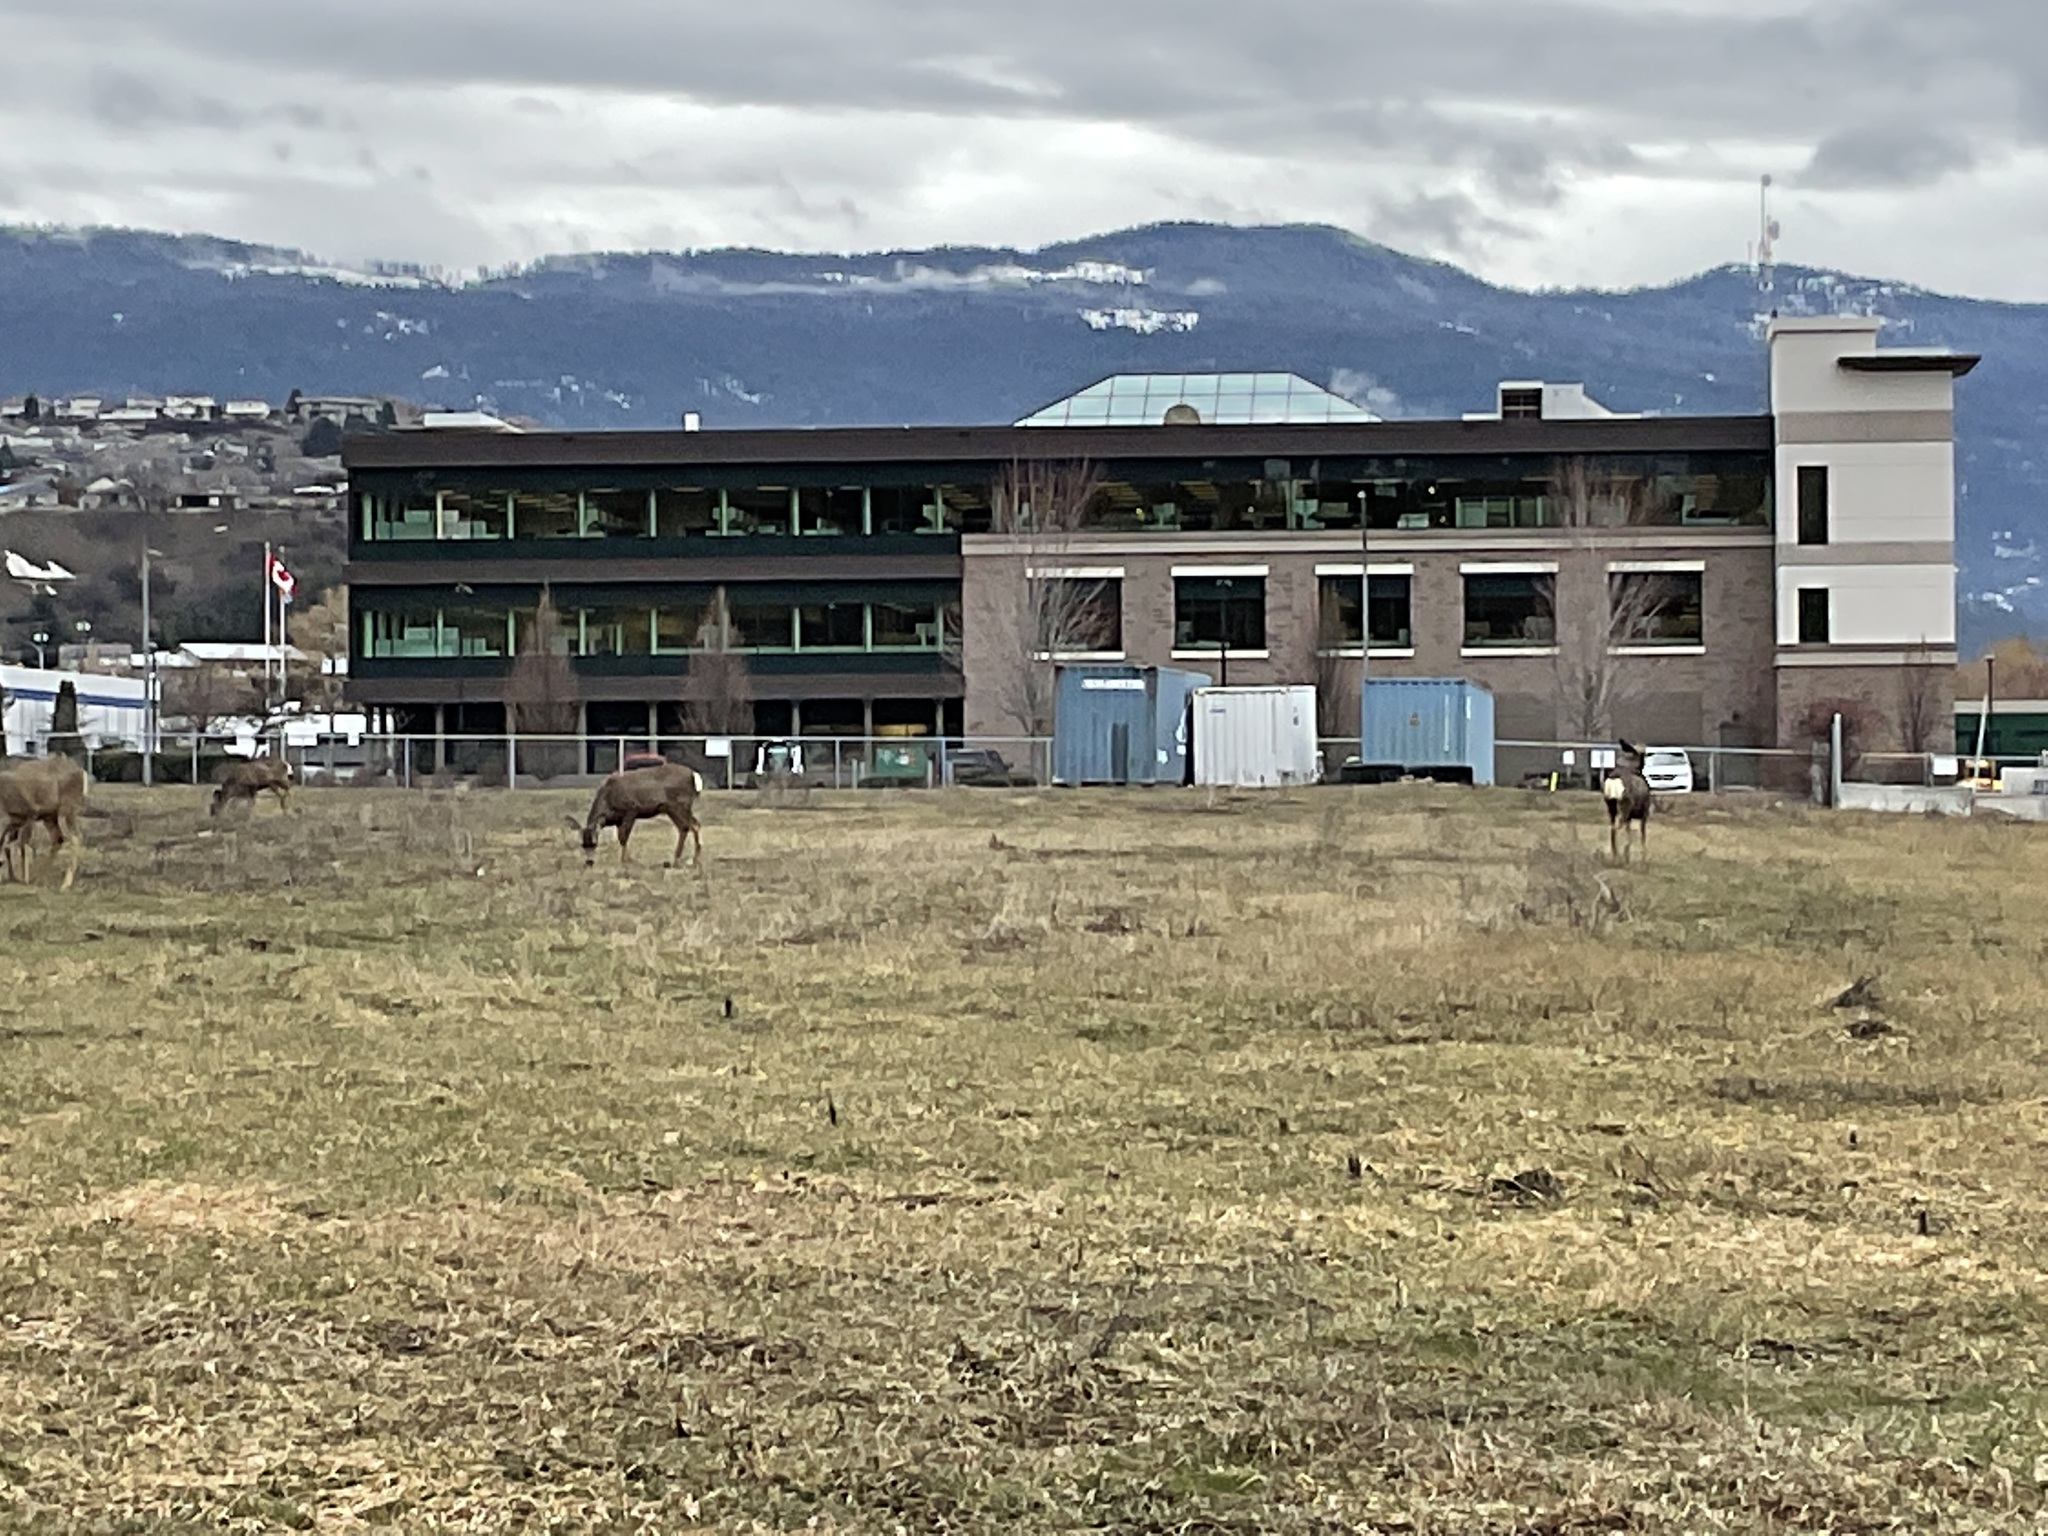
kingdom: Animalia
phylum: Chordata
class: Mammalia
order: Artiodactyla
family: Cervidae
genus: Odocoileus
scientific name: Odocoileus hemionus
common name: Mule deer
